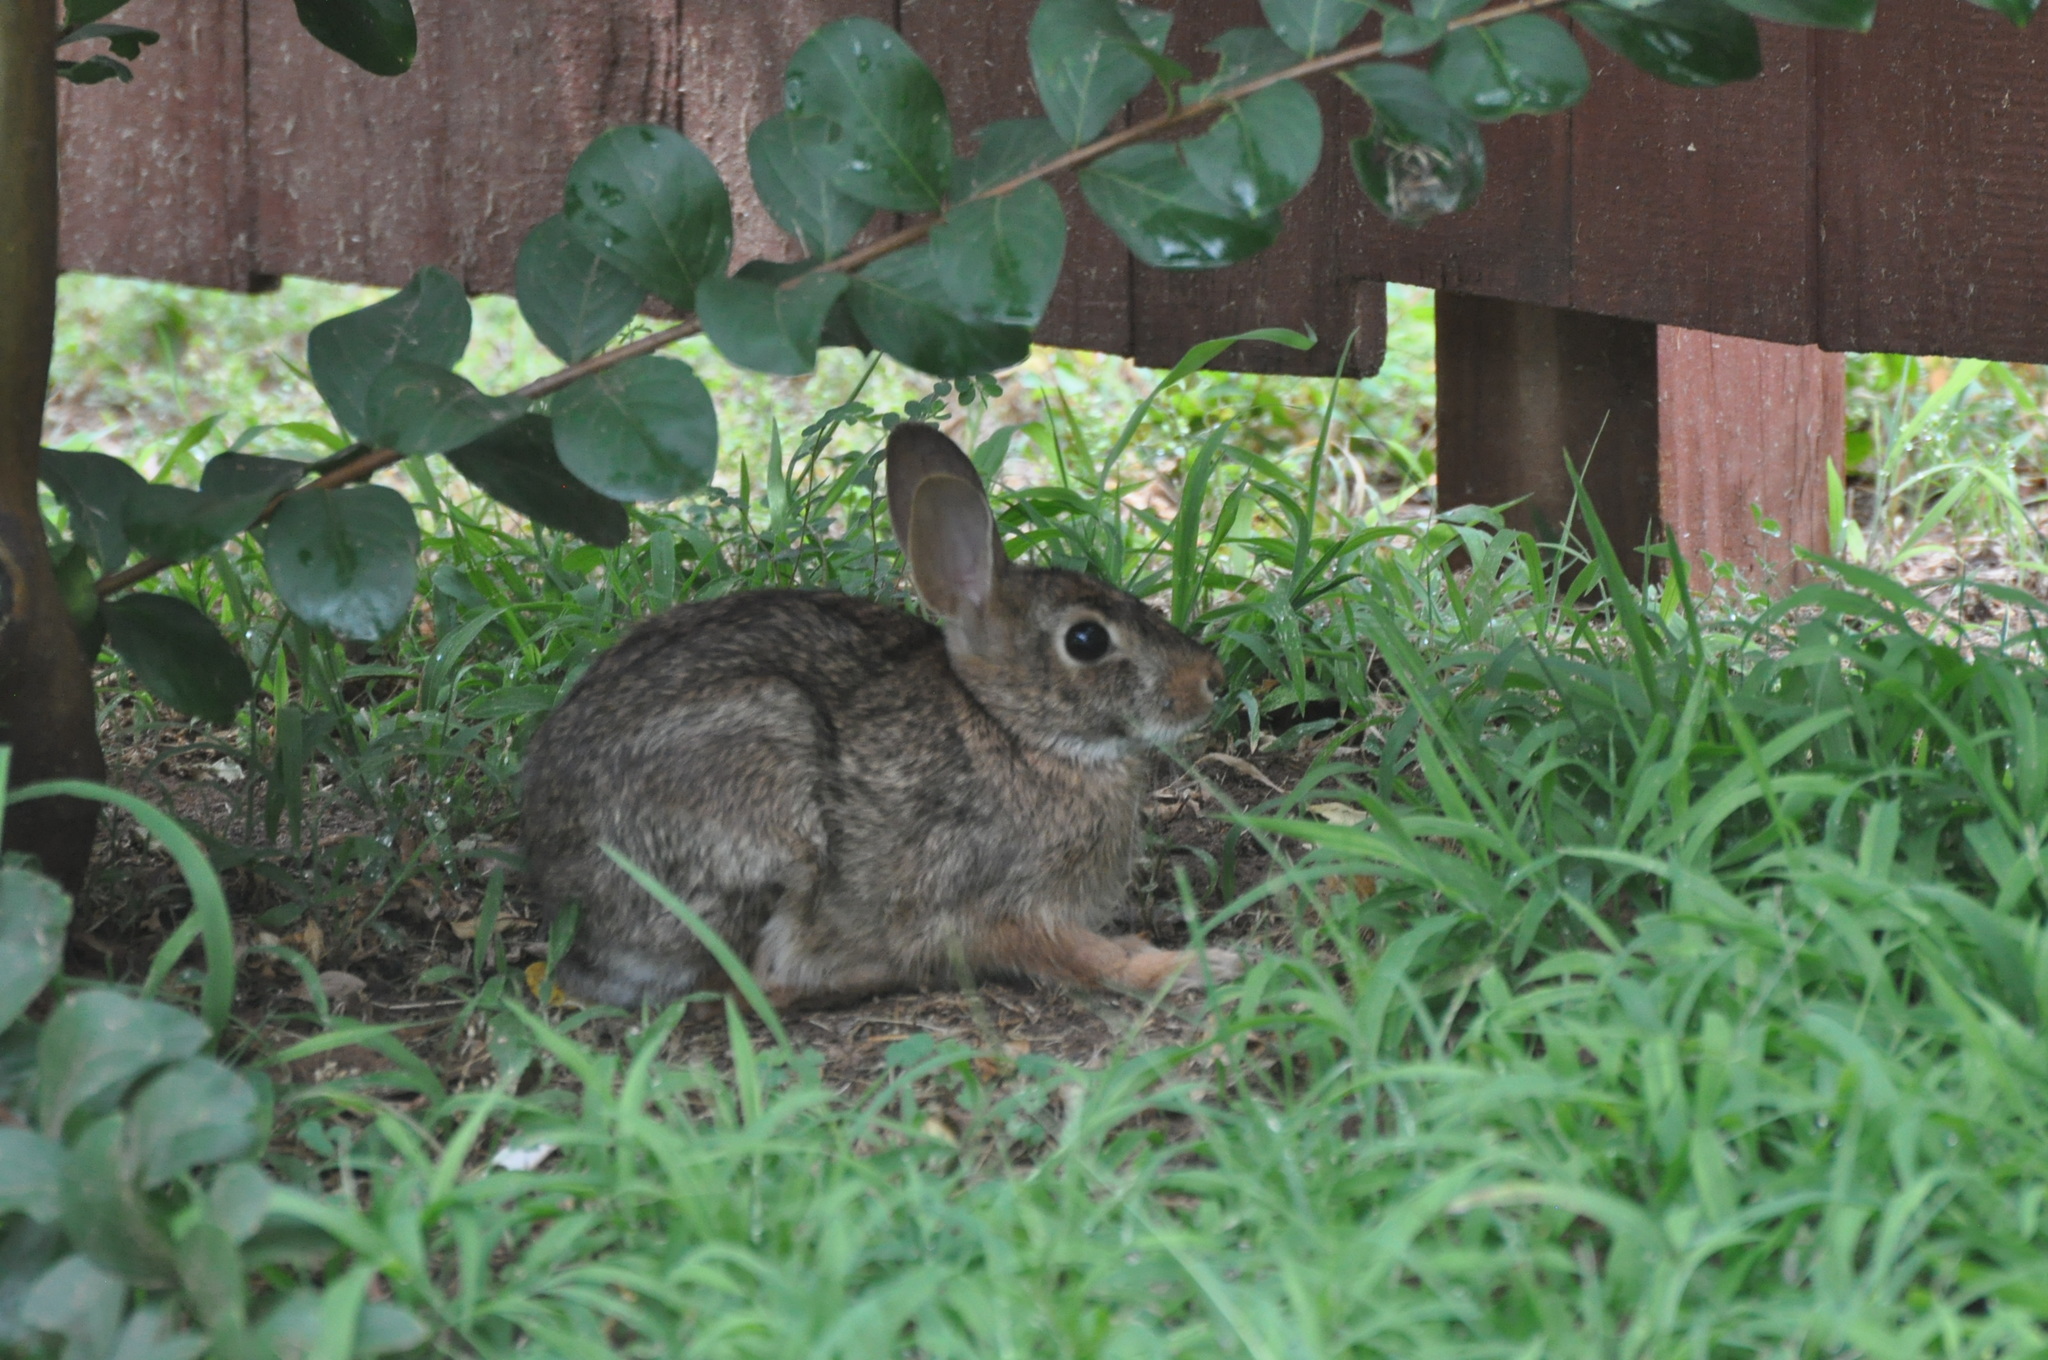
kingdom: Animalia
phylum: Chordata
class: Mammalia
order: Lagomorpha
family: Leporidae
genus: Sylvilagus
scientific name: Sylvilagus floridanus
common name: Eastern cottontail
